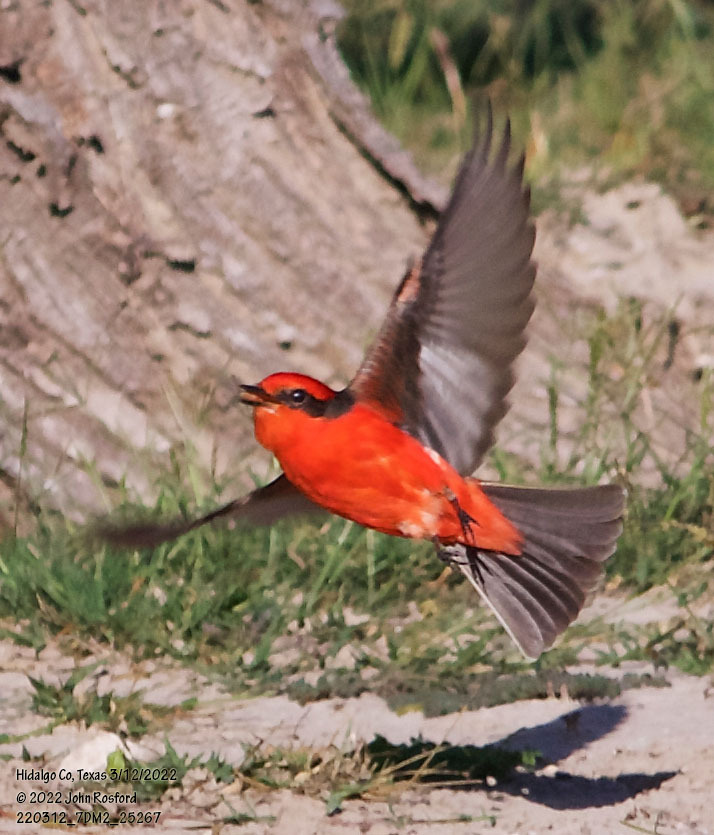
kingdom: Animalia
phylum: Chordata
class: Aves
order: Passeriformes
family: Tyrannidae
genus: Pyrocephalus
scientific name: Pyrocephalus rubinus
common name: Vermilion flycatcher
